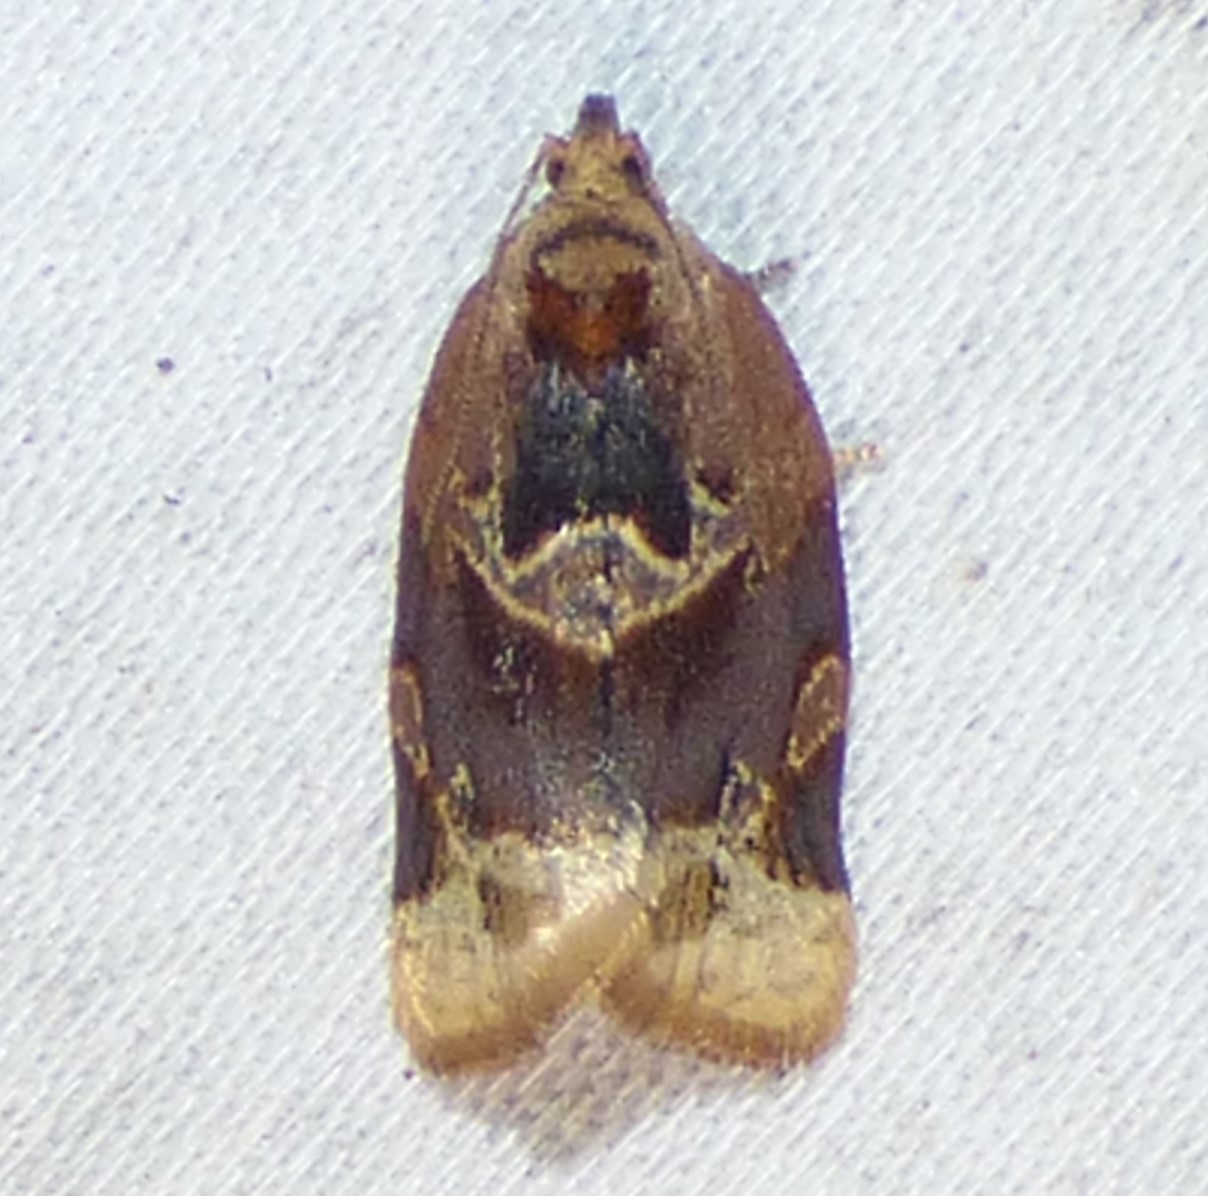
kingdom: Animalia
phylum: Arthropoda
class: Insecta
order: Lepidoptera
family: Tortricidae
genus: Argyrotaenia
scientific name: Argyrotaenia velutinana
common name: Red-banded leafroller moth
